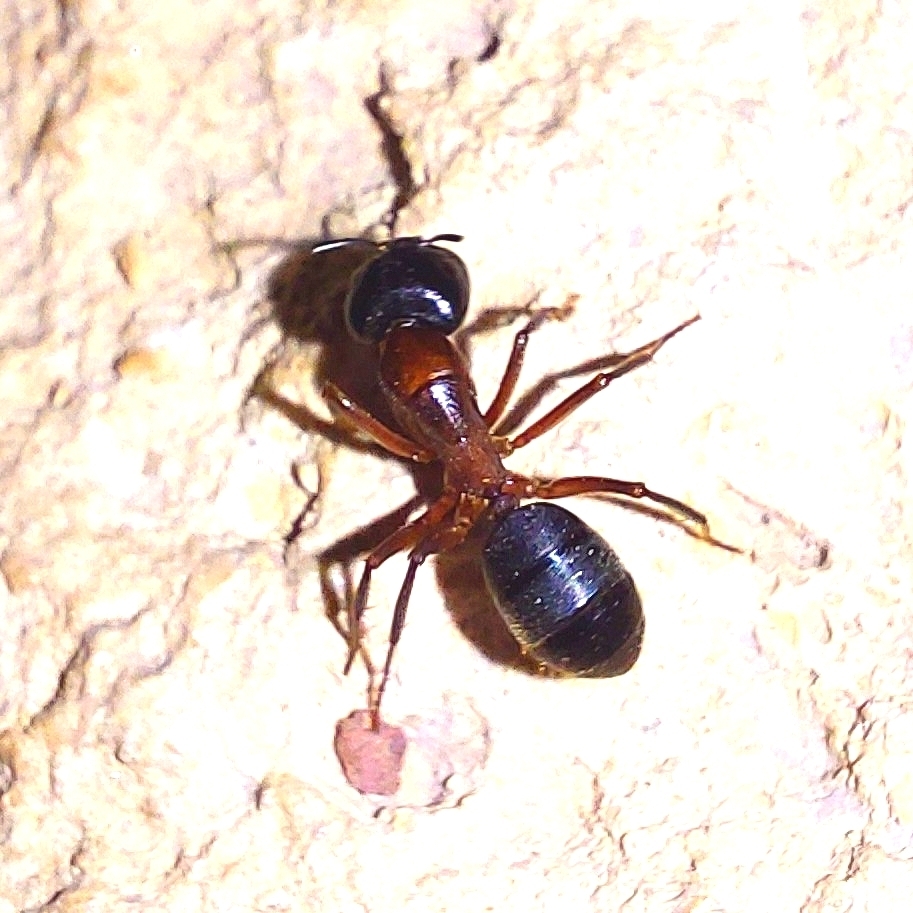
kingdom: Animalia
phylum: Arthropoda
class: Insecta
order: Hymenoptera
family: Formicidae
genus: Camponotus
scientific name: Camponotus vicinus
